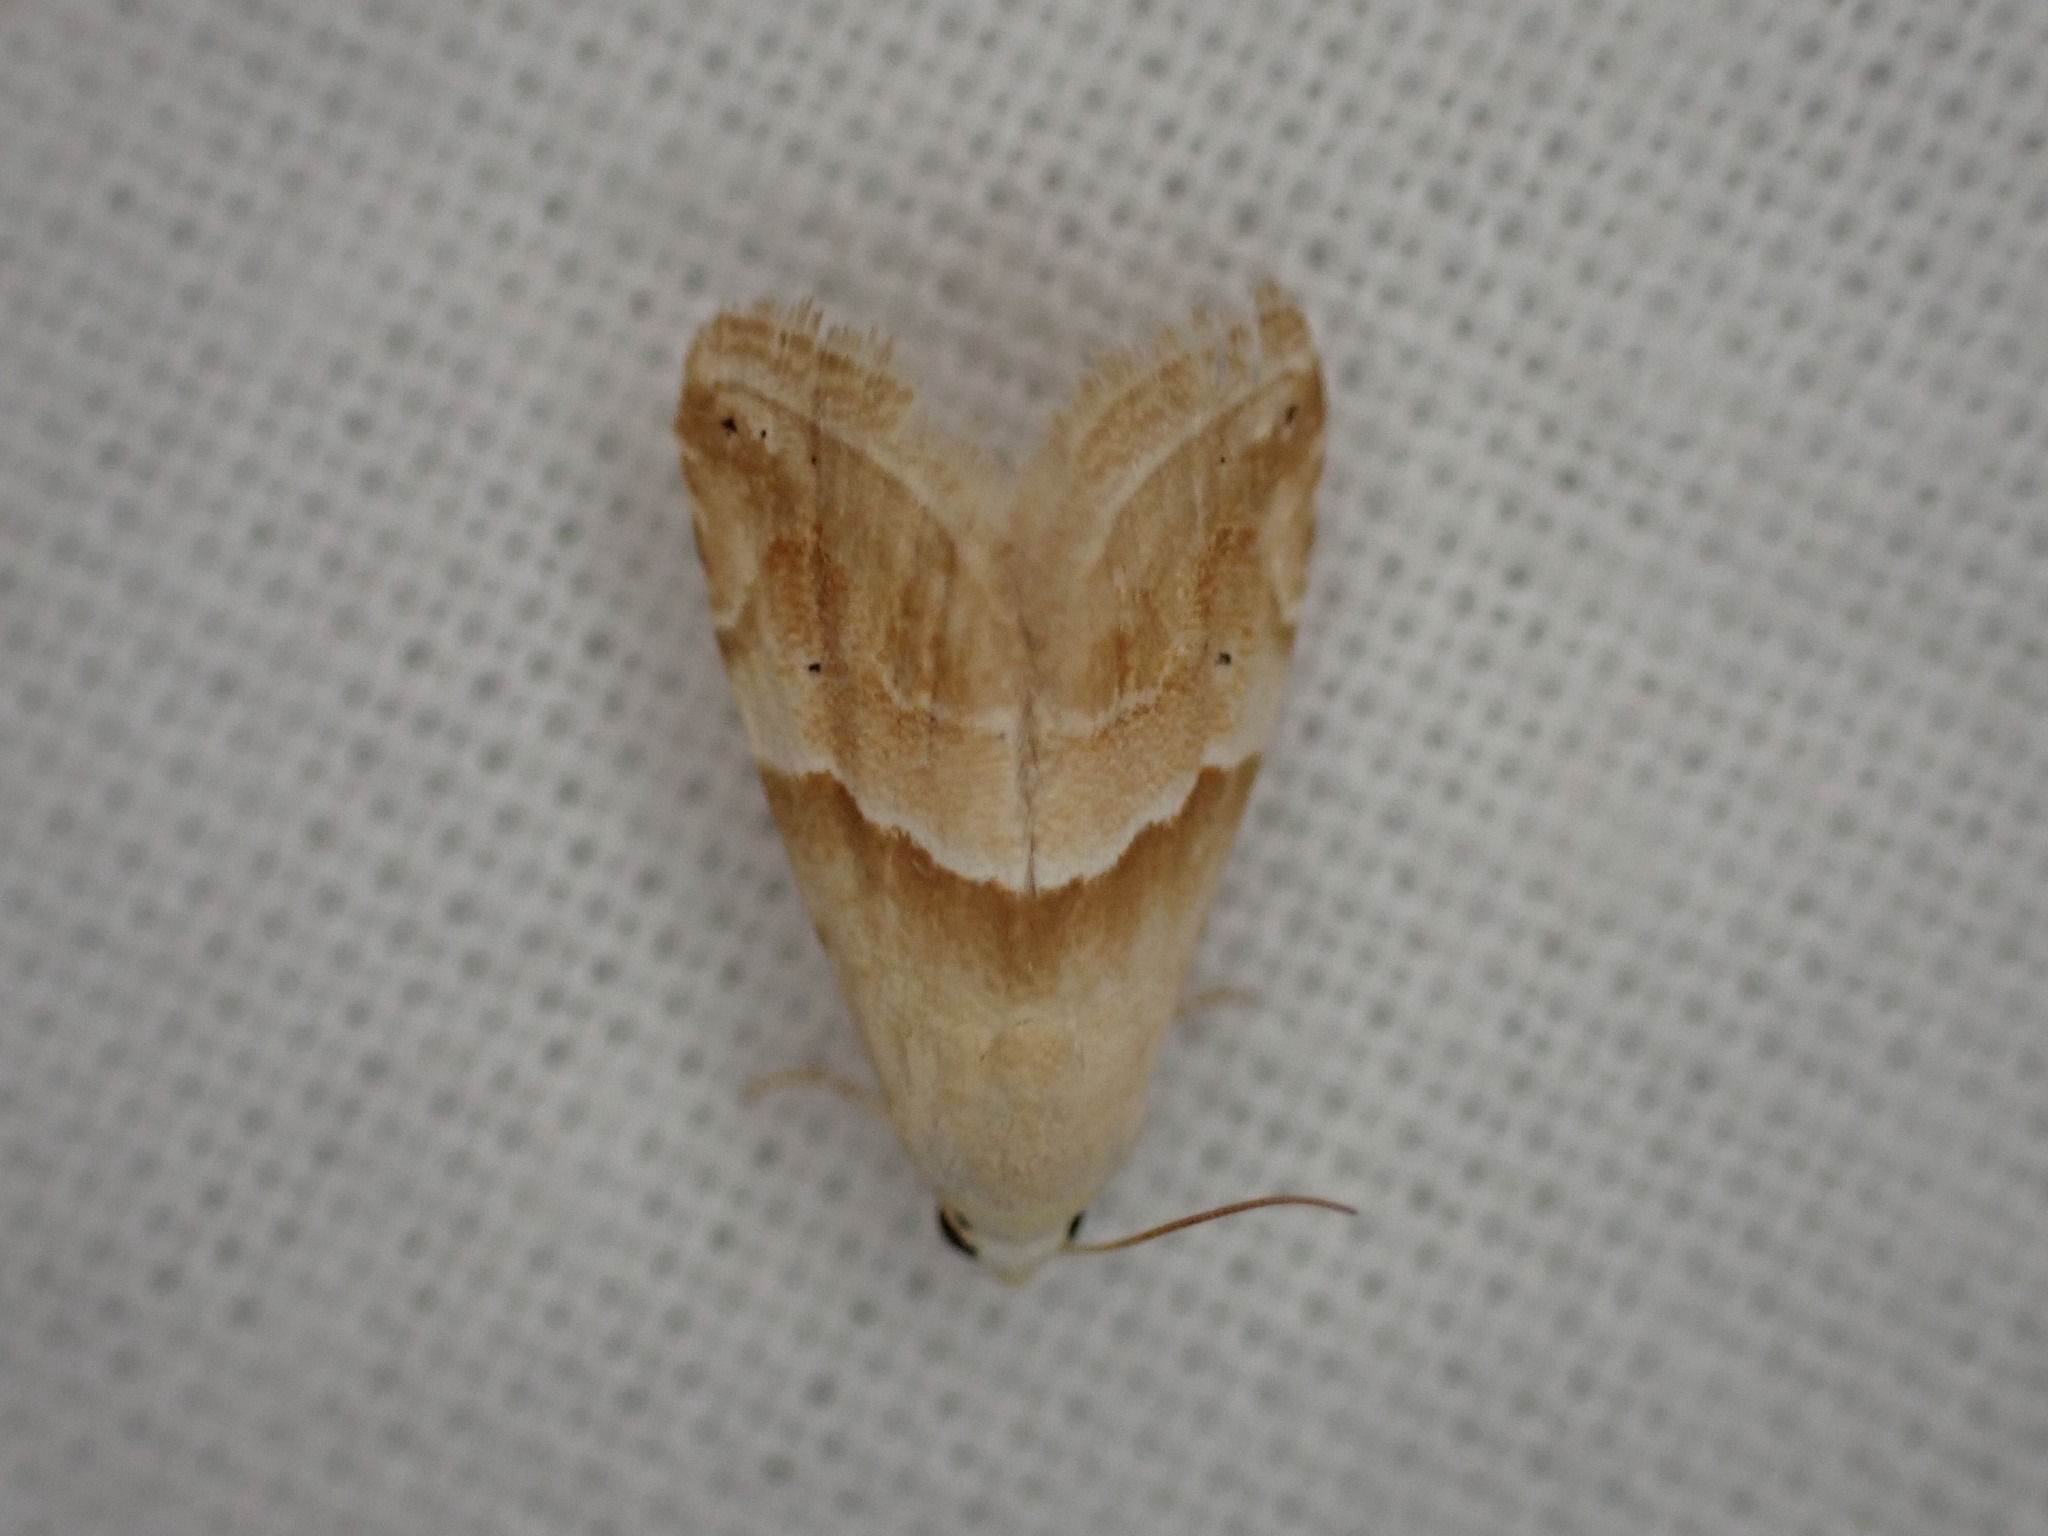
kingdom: Animalia
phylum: Arthropoda
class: Insecta
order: Lepidoptera
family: Noctuidae
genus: Eublemma
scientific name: Eublemma parva
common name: Small marbled
